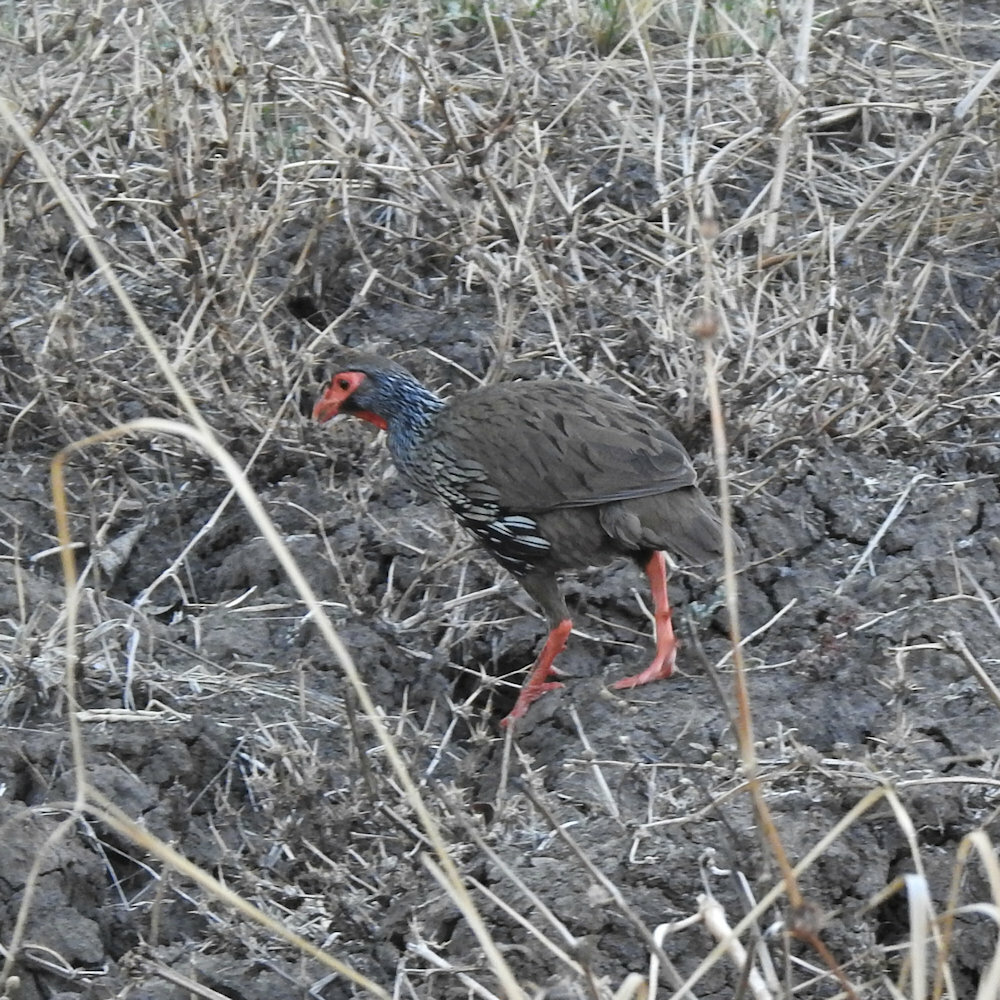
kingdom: Animalia
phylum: Chordata
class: Aves
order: Galliformes
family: Phasianidae
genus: Pternistis
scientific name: Pternistis afer
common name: Red-necked spurfowl
